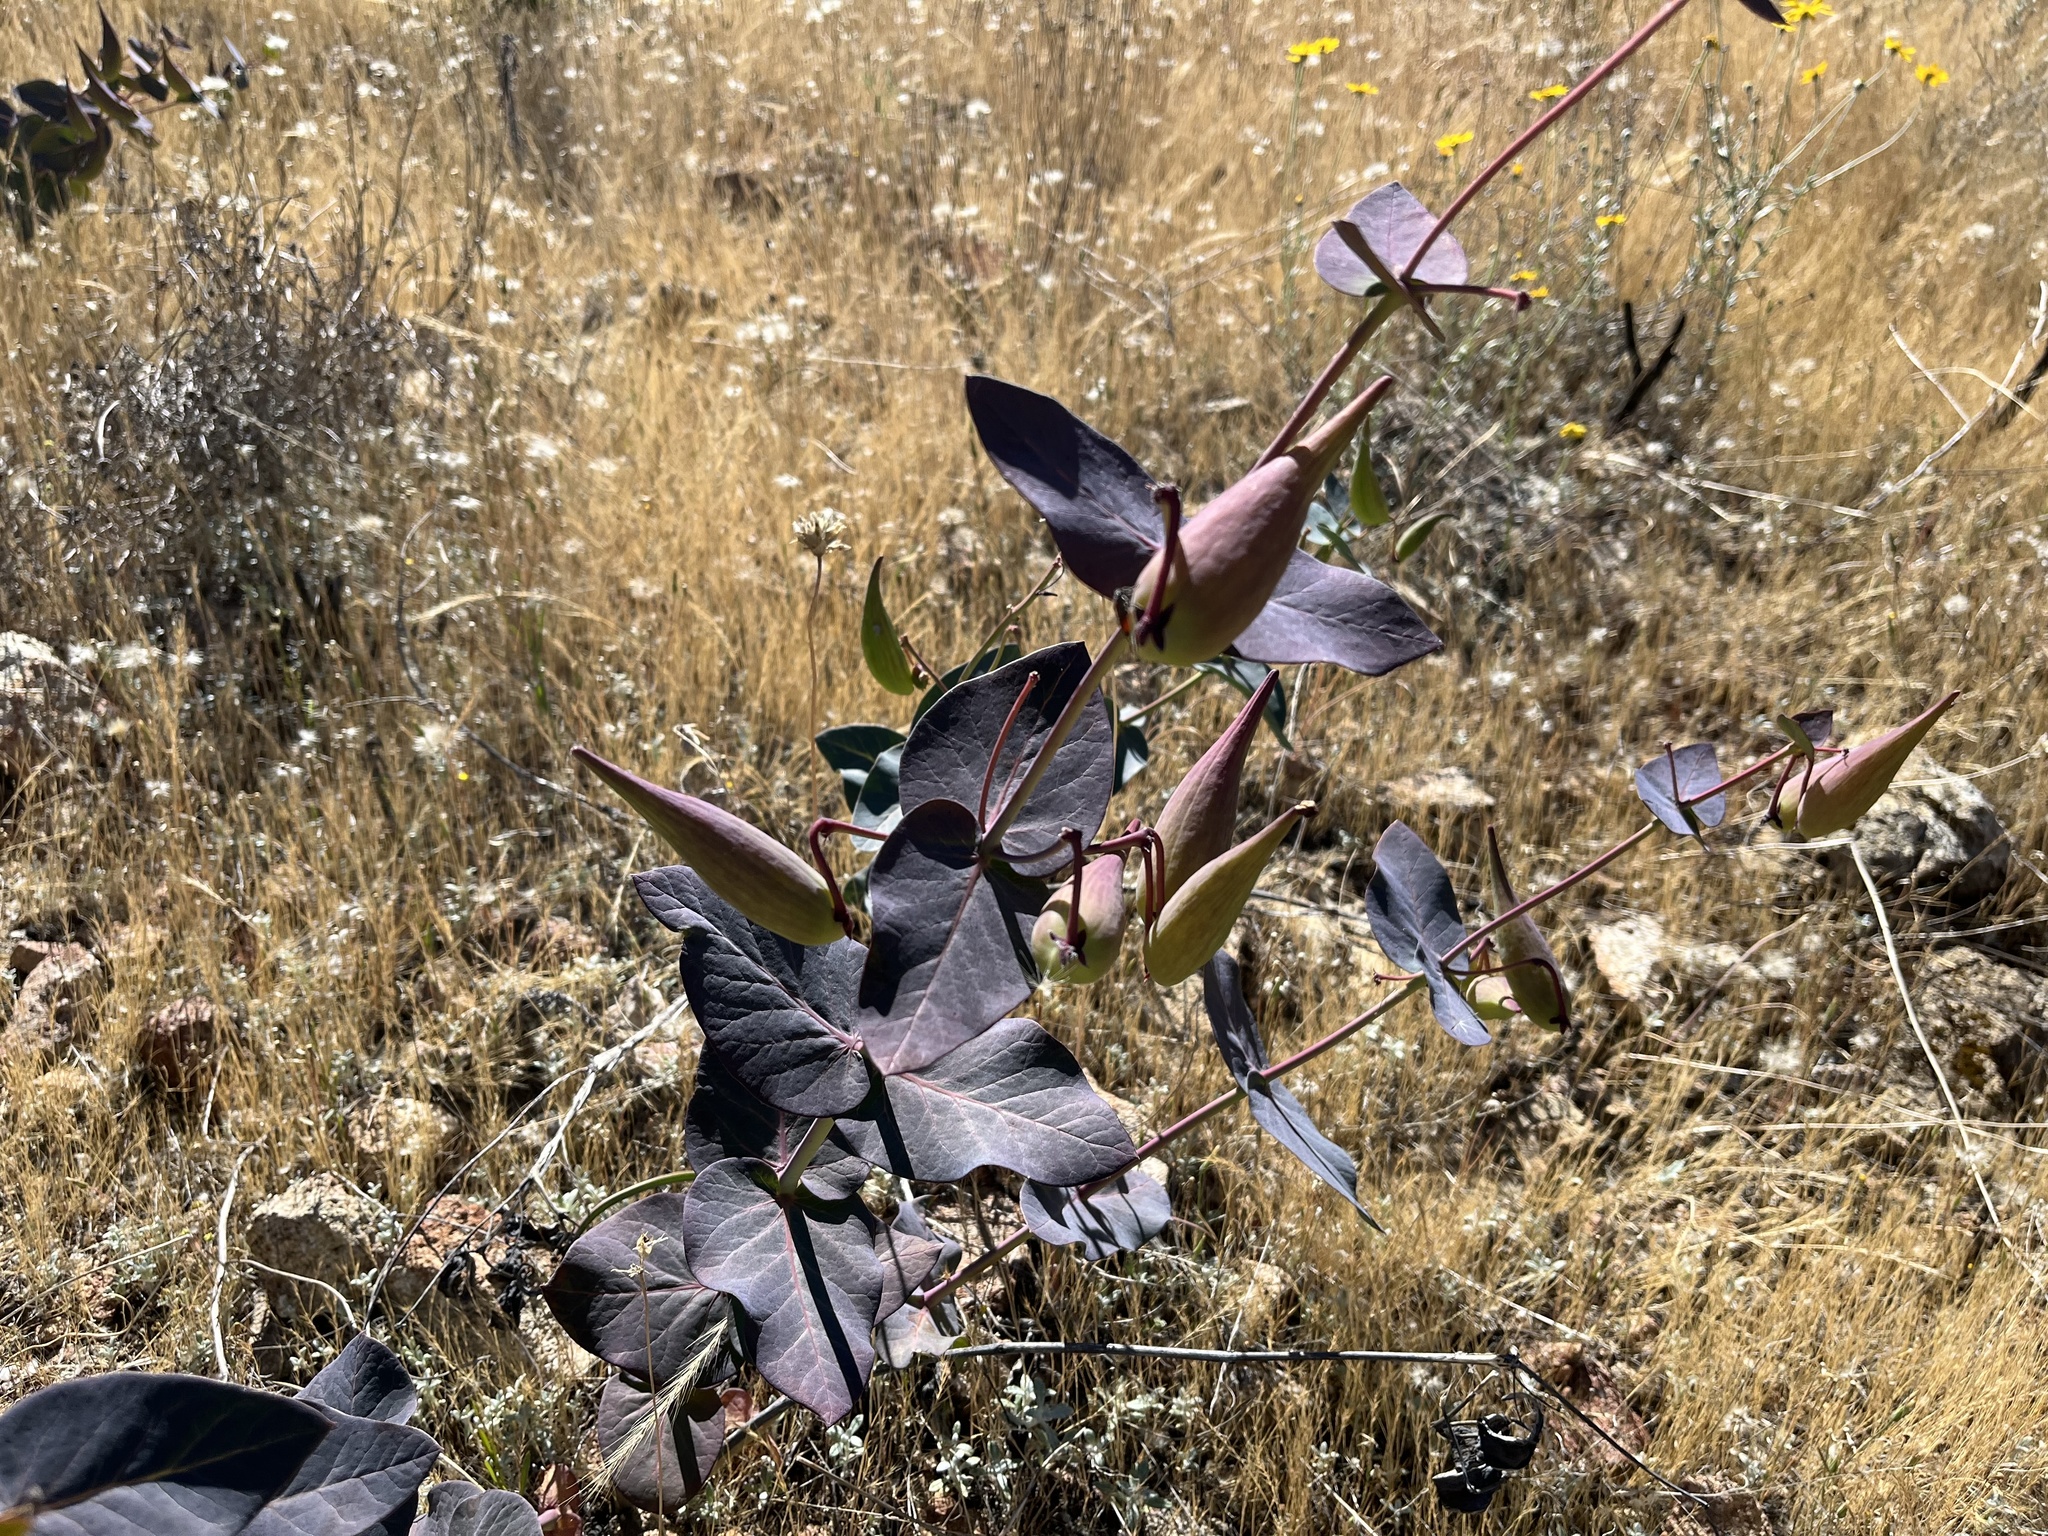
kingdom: Plantae
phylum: Tracheophyta
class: Magnoliopsida
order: Gentianales
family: Apocynaceae
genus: Asclepias
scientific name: Asclepias cordifolia
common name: Purple milkweed
